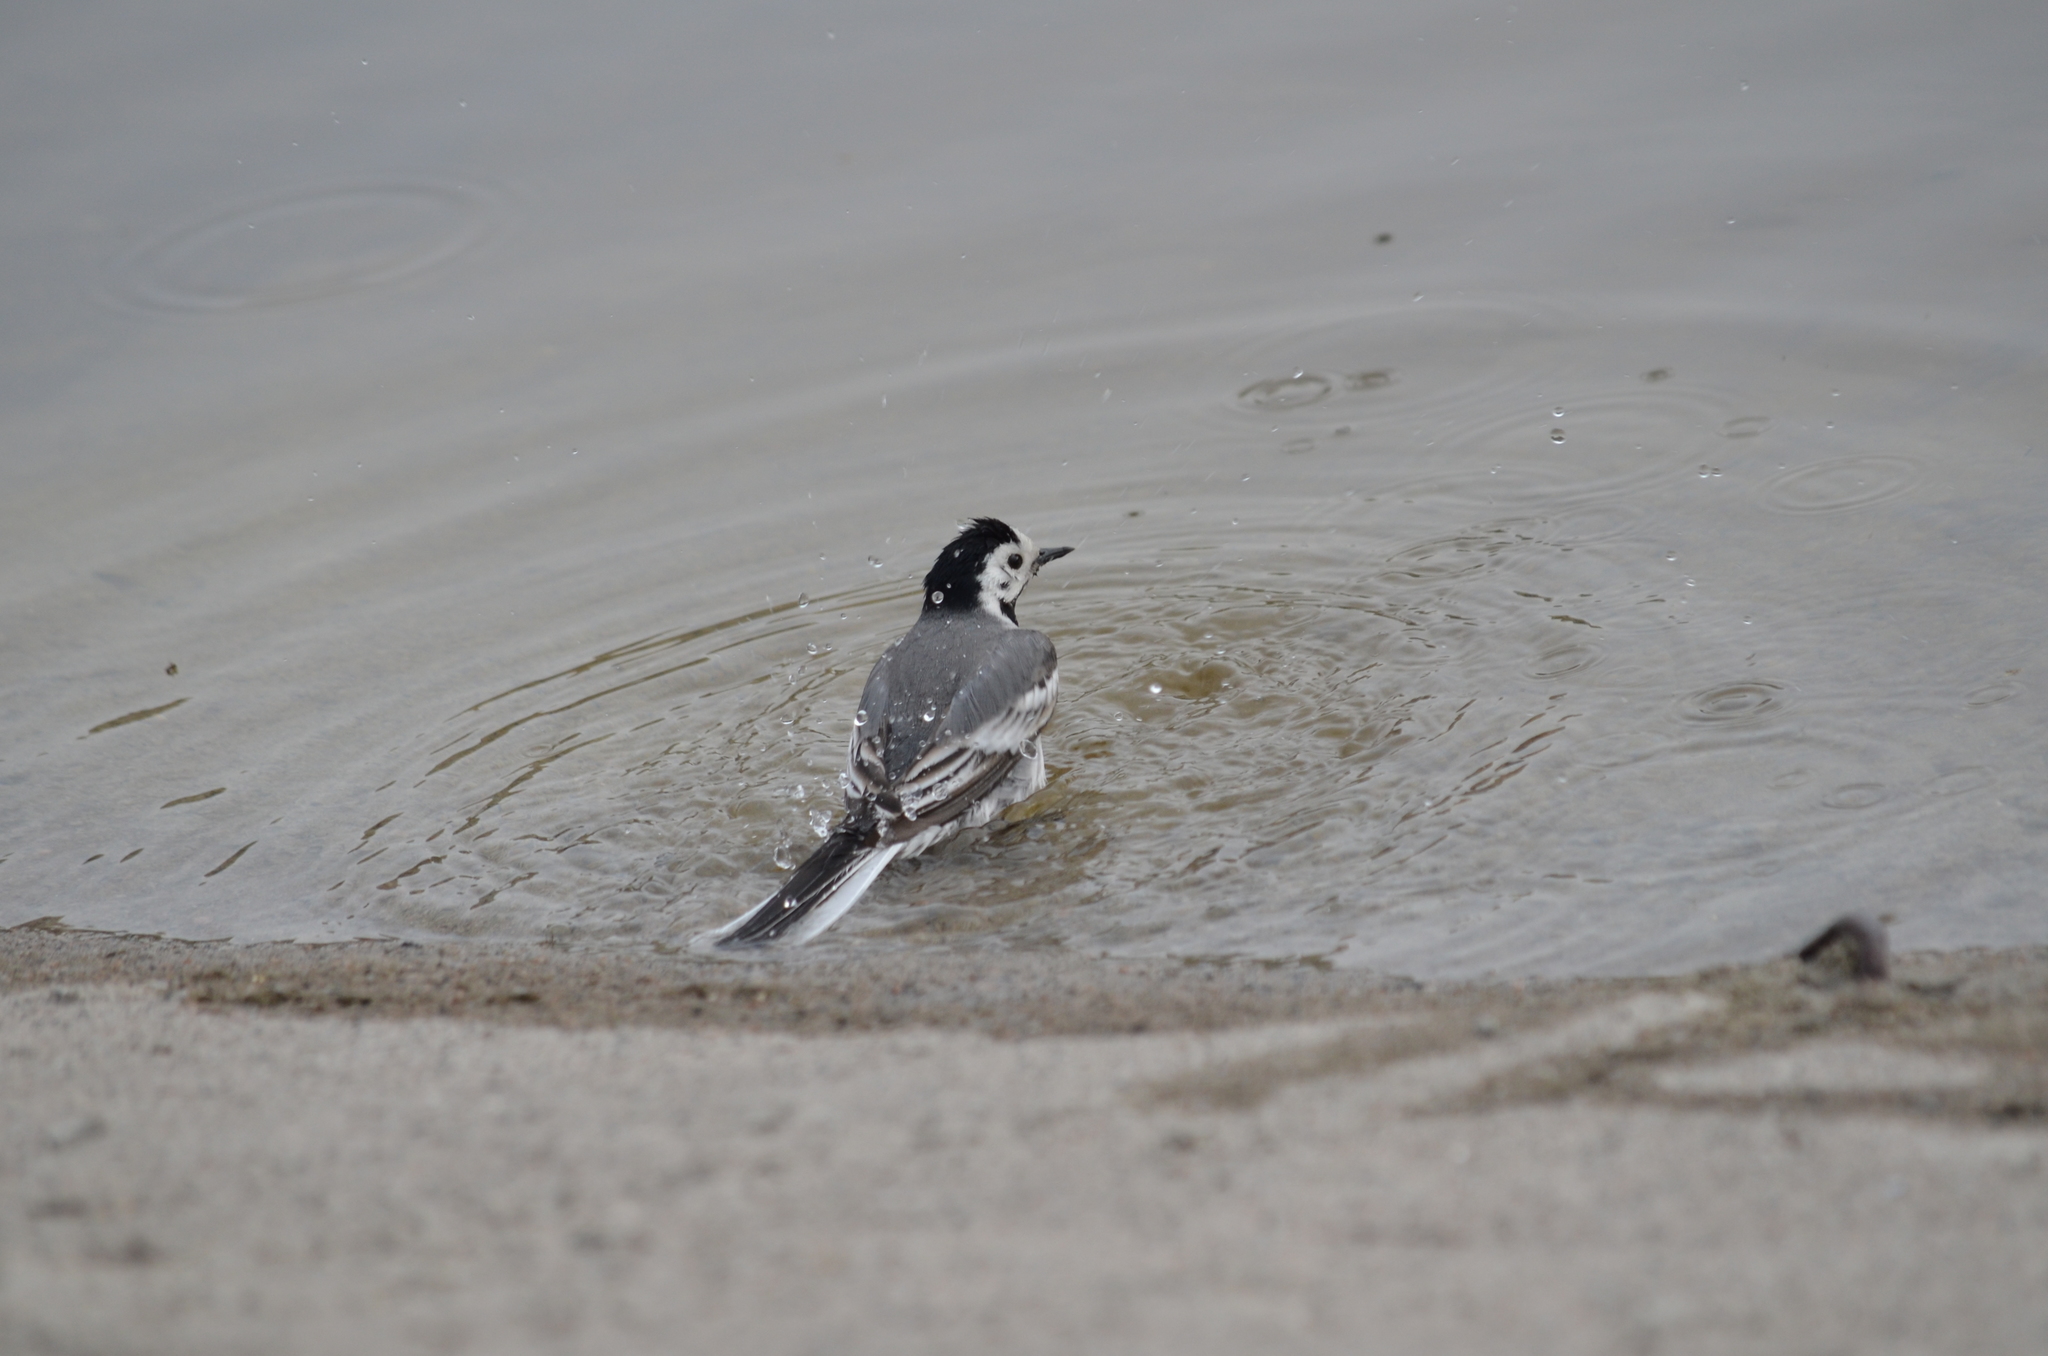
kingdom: Animalia
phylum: Chordata
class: Aves
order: Passeriformes
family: Motacillidae
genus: Motacilla
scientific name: Motacilla alba
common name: White wagtail
